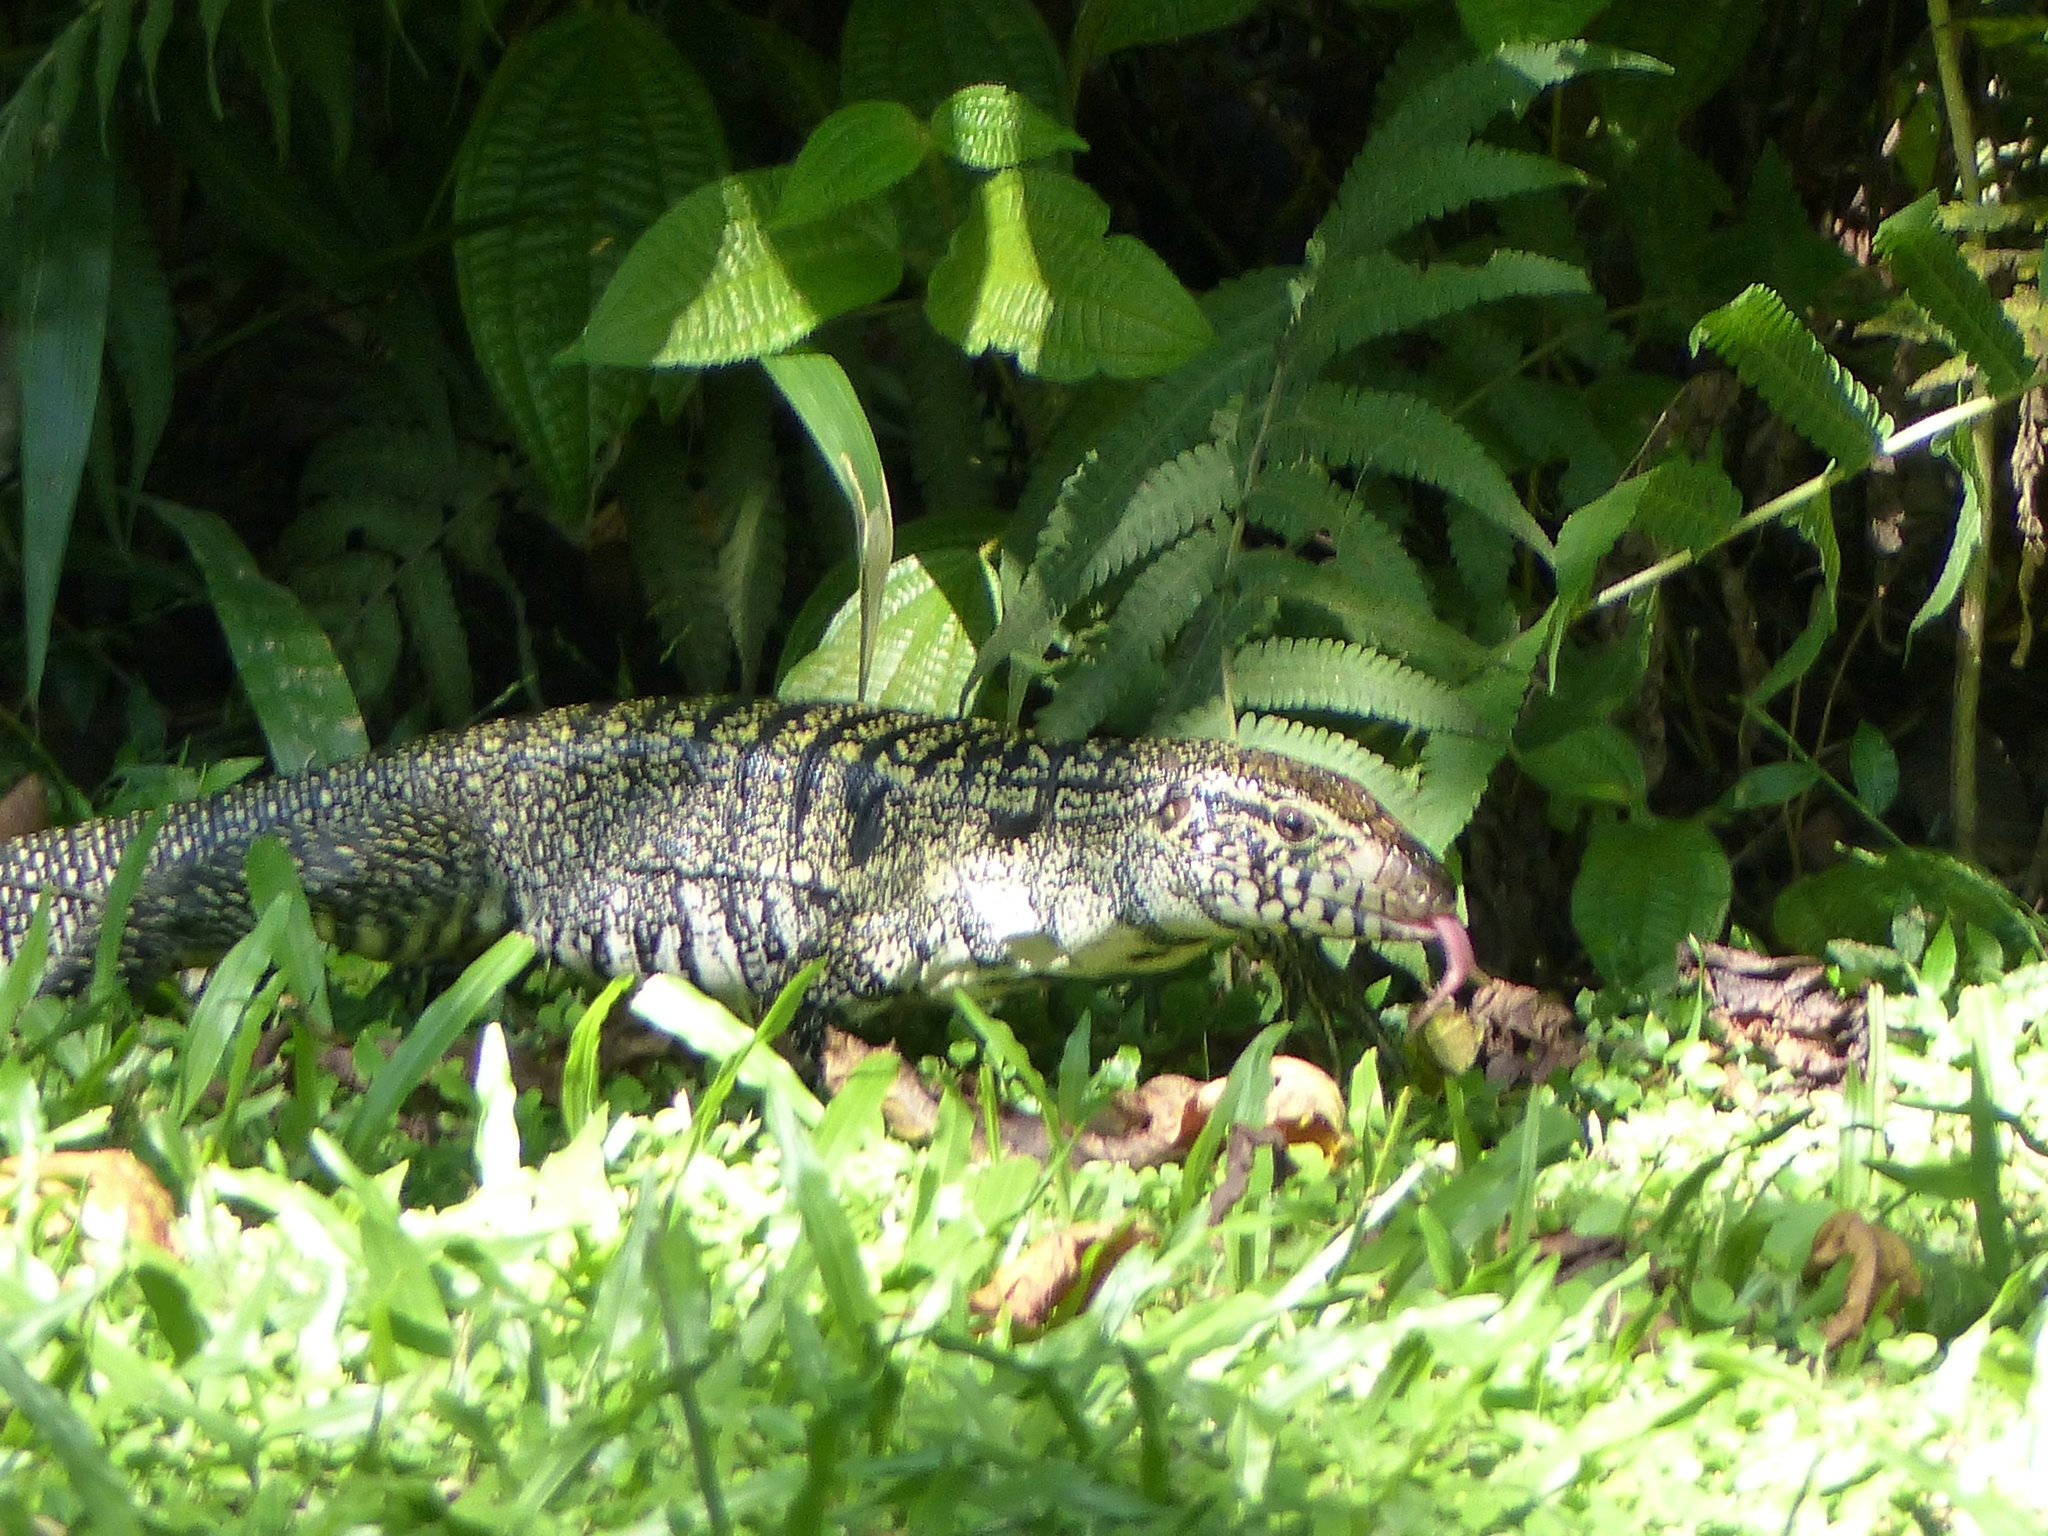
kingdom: Animalia
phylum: Chordata
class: Squamata
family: Teiidae
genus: Salvator
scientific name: Salvator merianae
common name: Argentine black and white tegu
